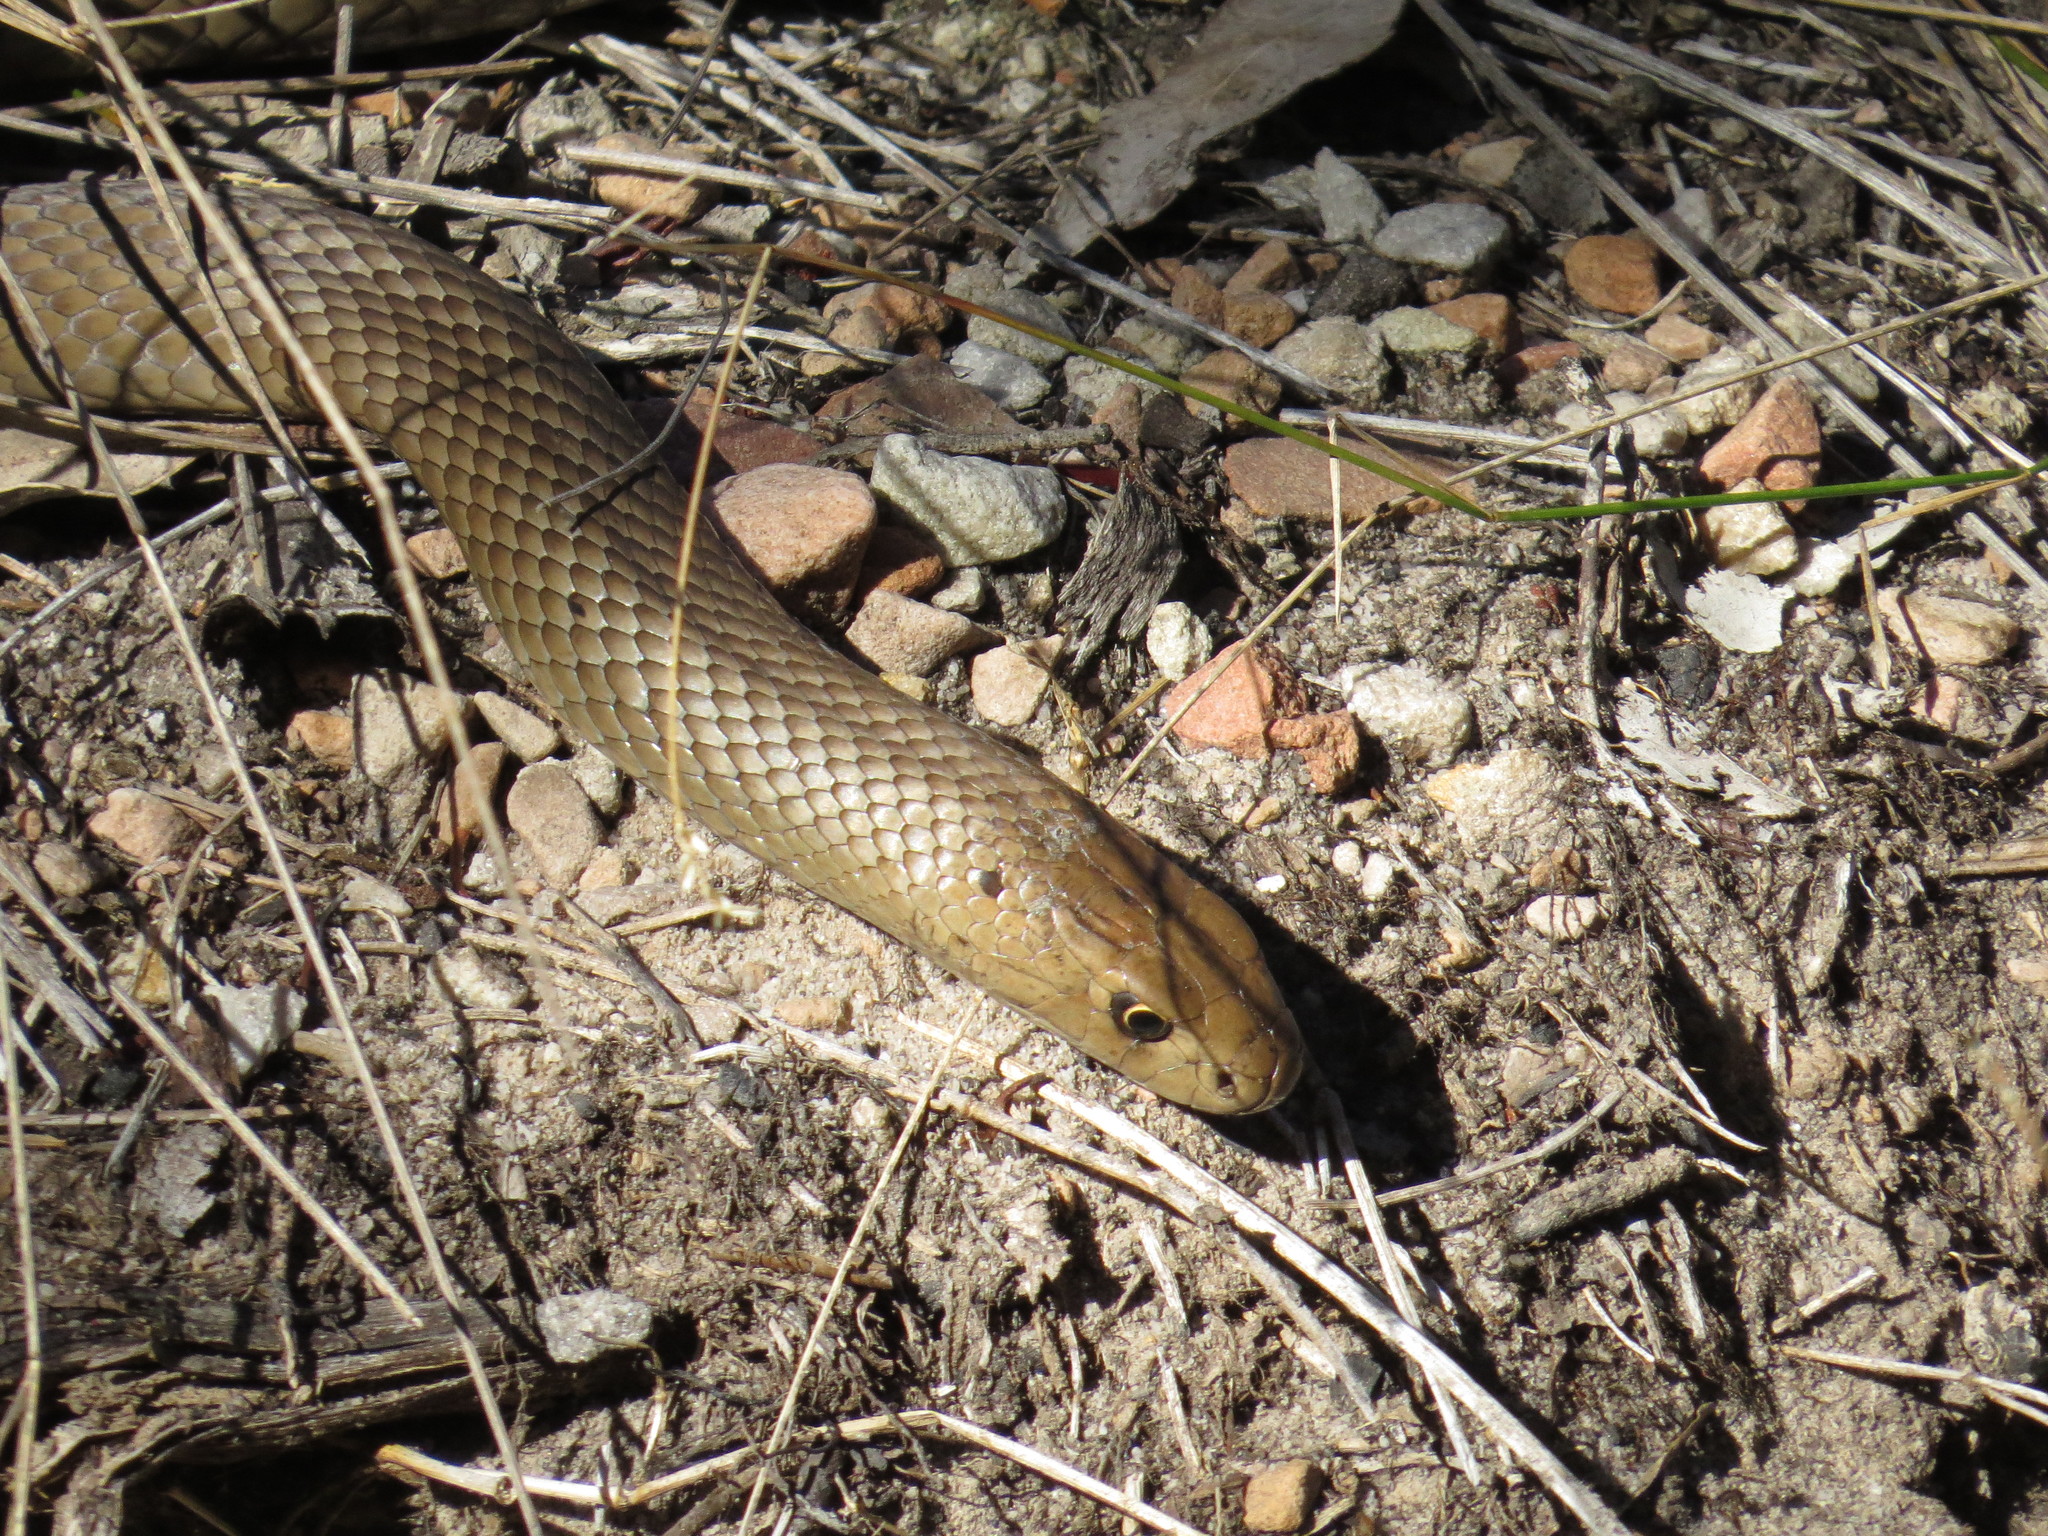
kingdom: Animalia
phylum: Chordata
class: Squamata
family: Elapidae
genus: Pseudonaja
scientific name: Pseudonaja textilis
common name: Eastern brown snake
